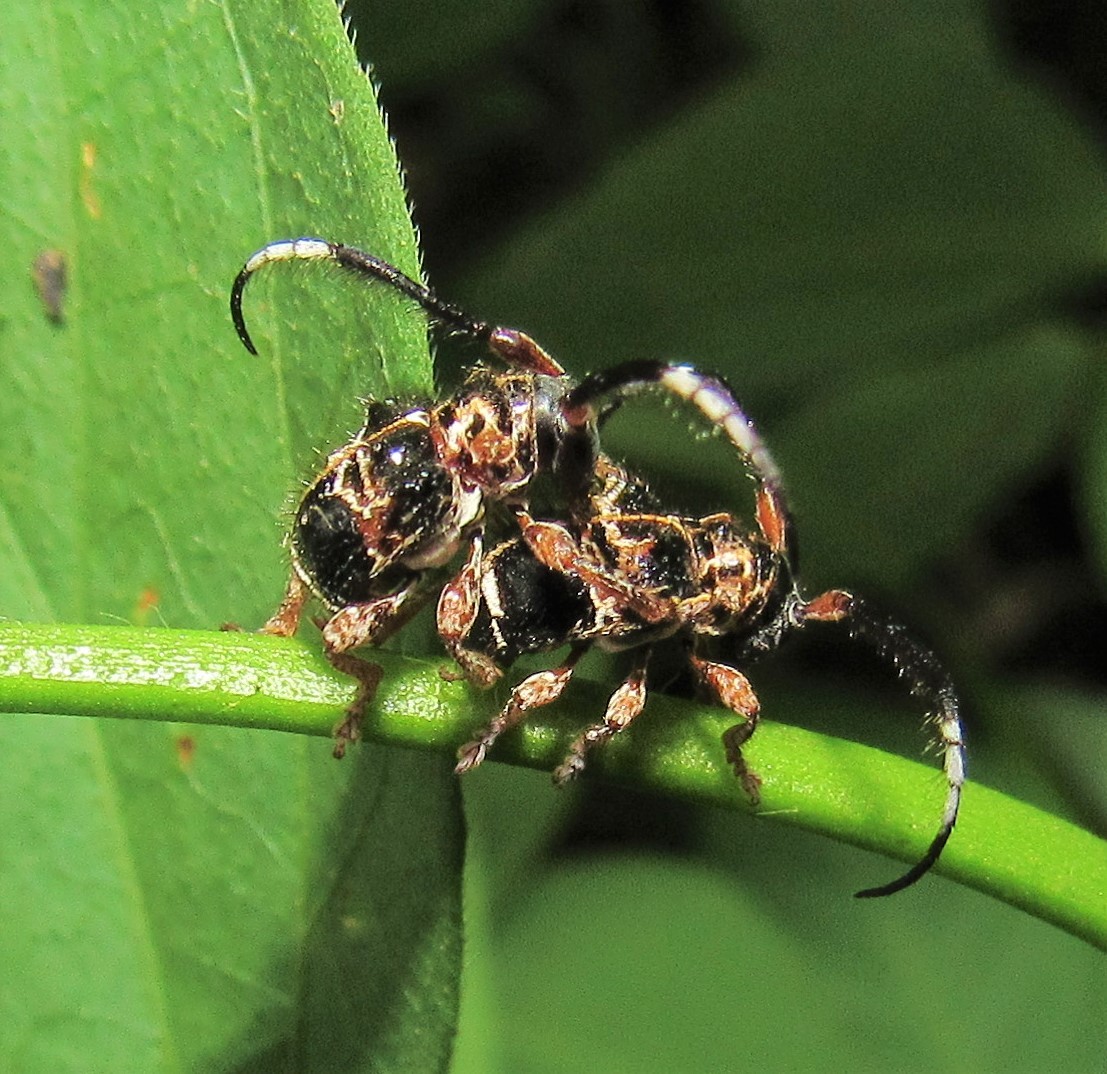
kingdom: Animalia
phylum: Arthropoda
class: Insecta
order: Coleoptera
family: Cerambycidae
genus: Tessarecphora
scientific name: Tessarecphora arachnoides
